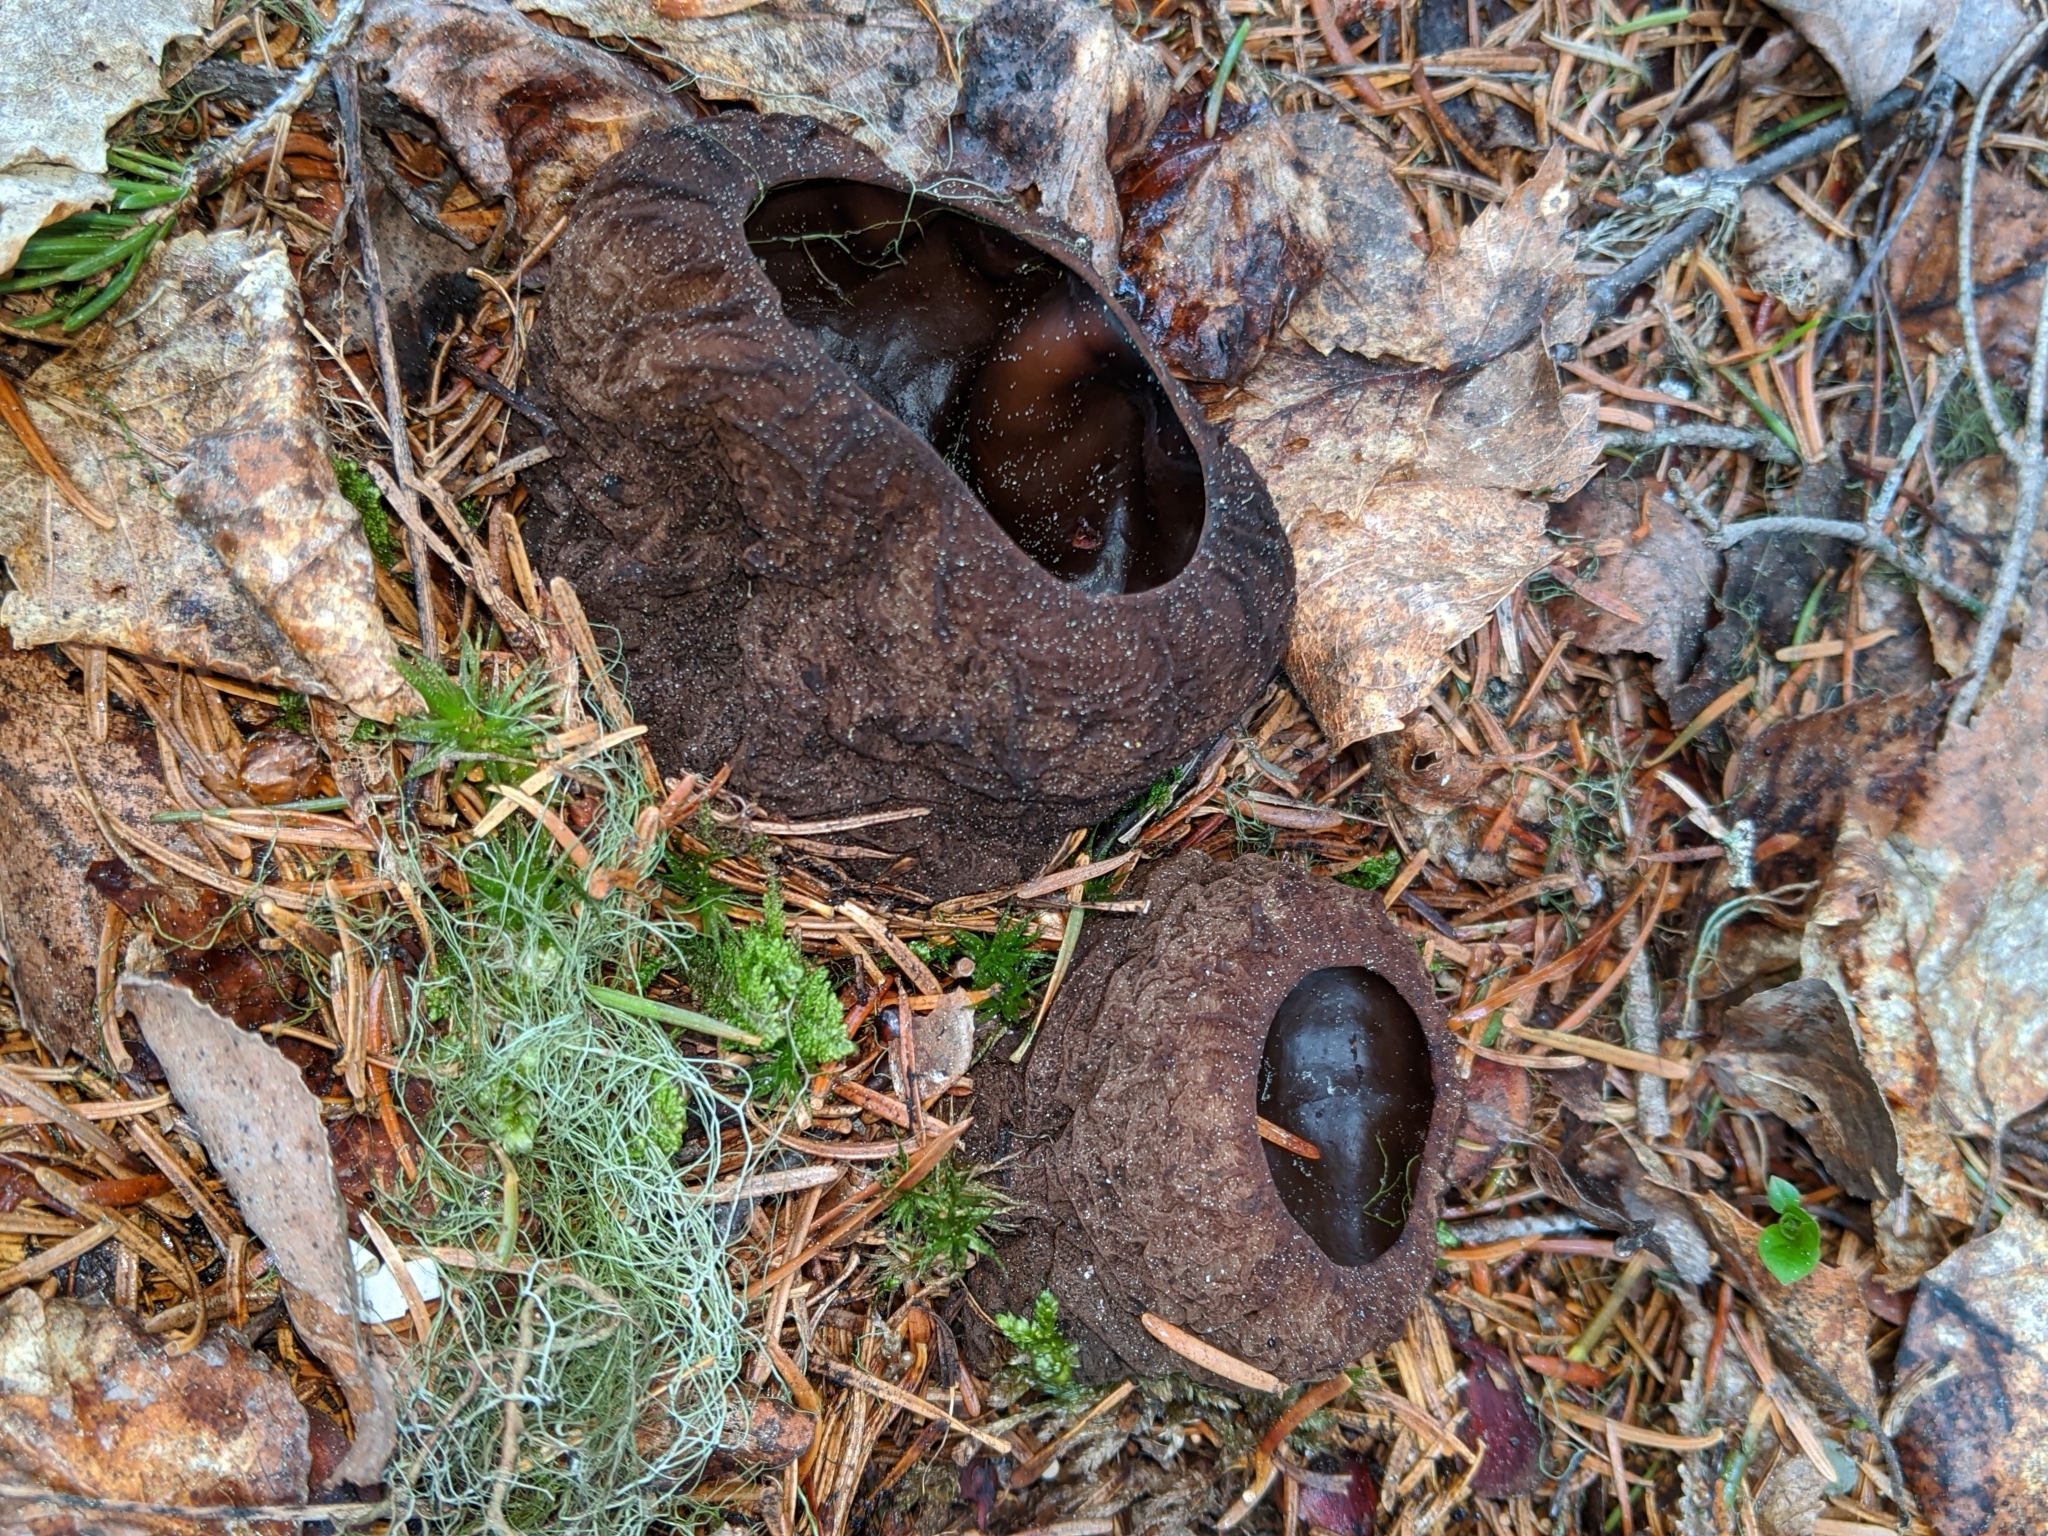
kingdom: Fungi
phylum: Ascomycota
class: Pezizomycetes
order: Pezizales
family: Sarcosomataceae
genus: Sarcosoma
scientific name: Sarcosoma globosum
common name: Charred-pancake cup
